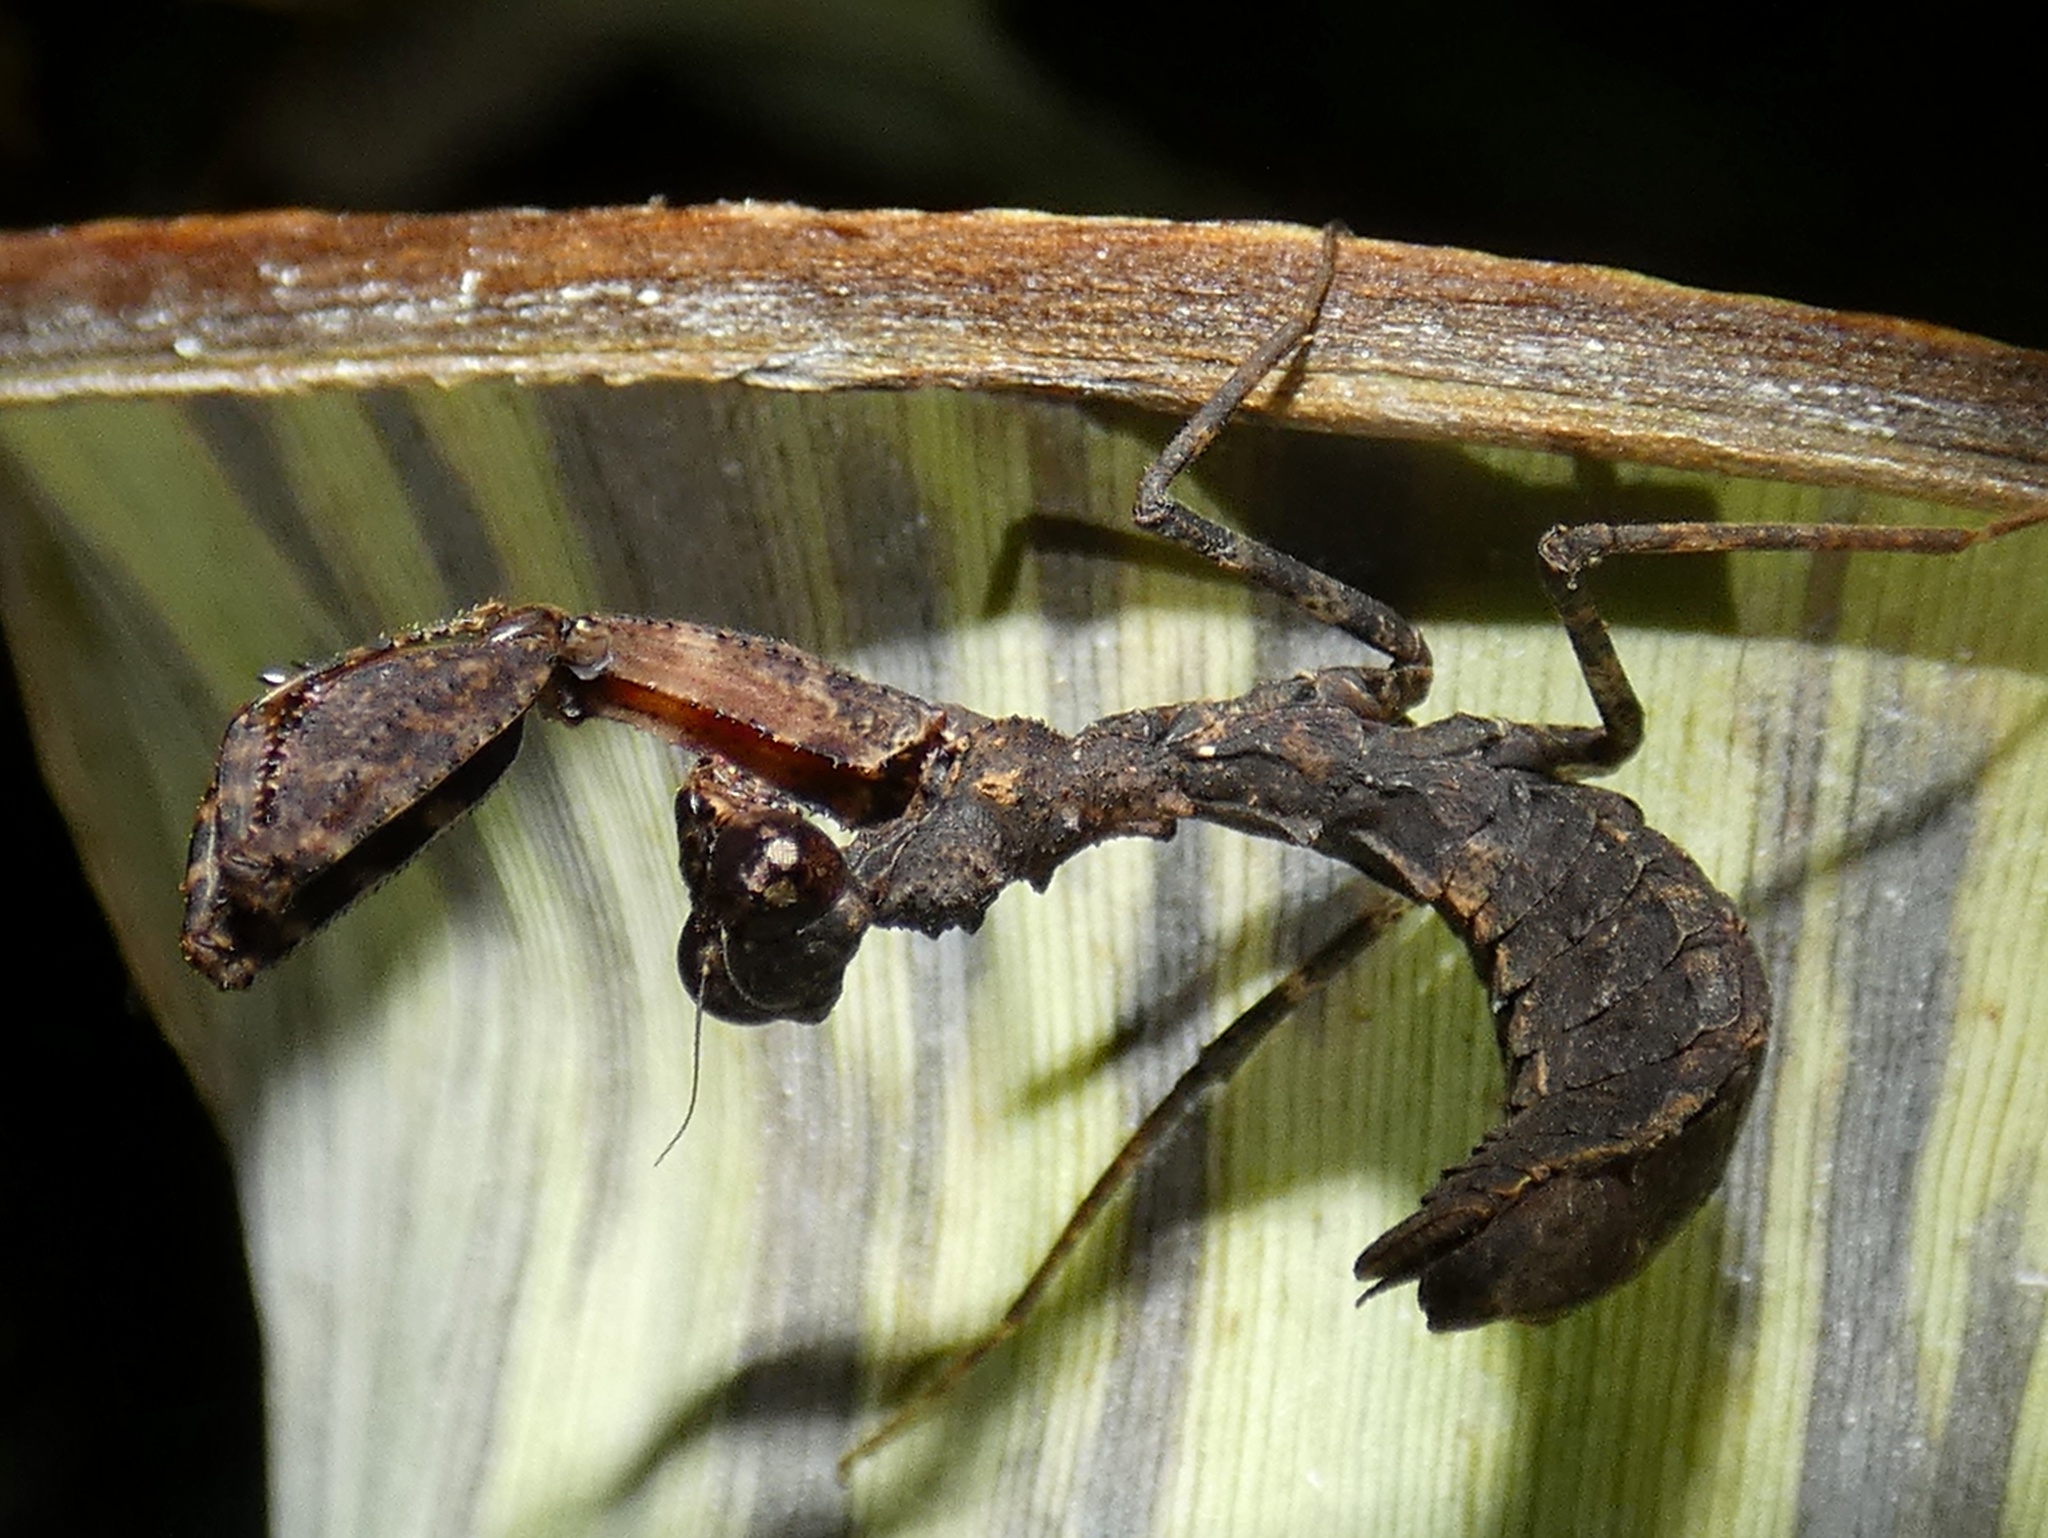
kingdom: Animalia
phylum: Arthropoda
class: Insecta
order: Mantodea
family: Thespidae
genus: Pseudomiopteryx
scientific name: Pseudomiopteryx infuscata
